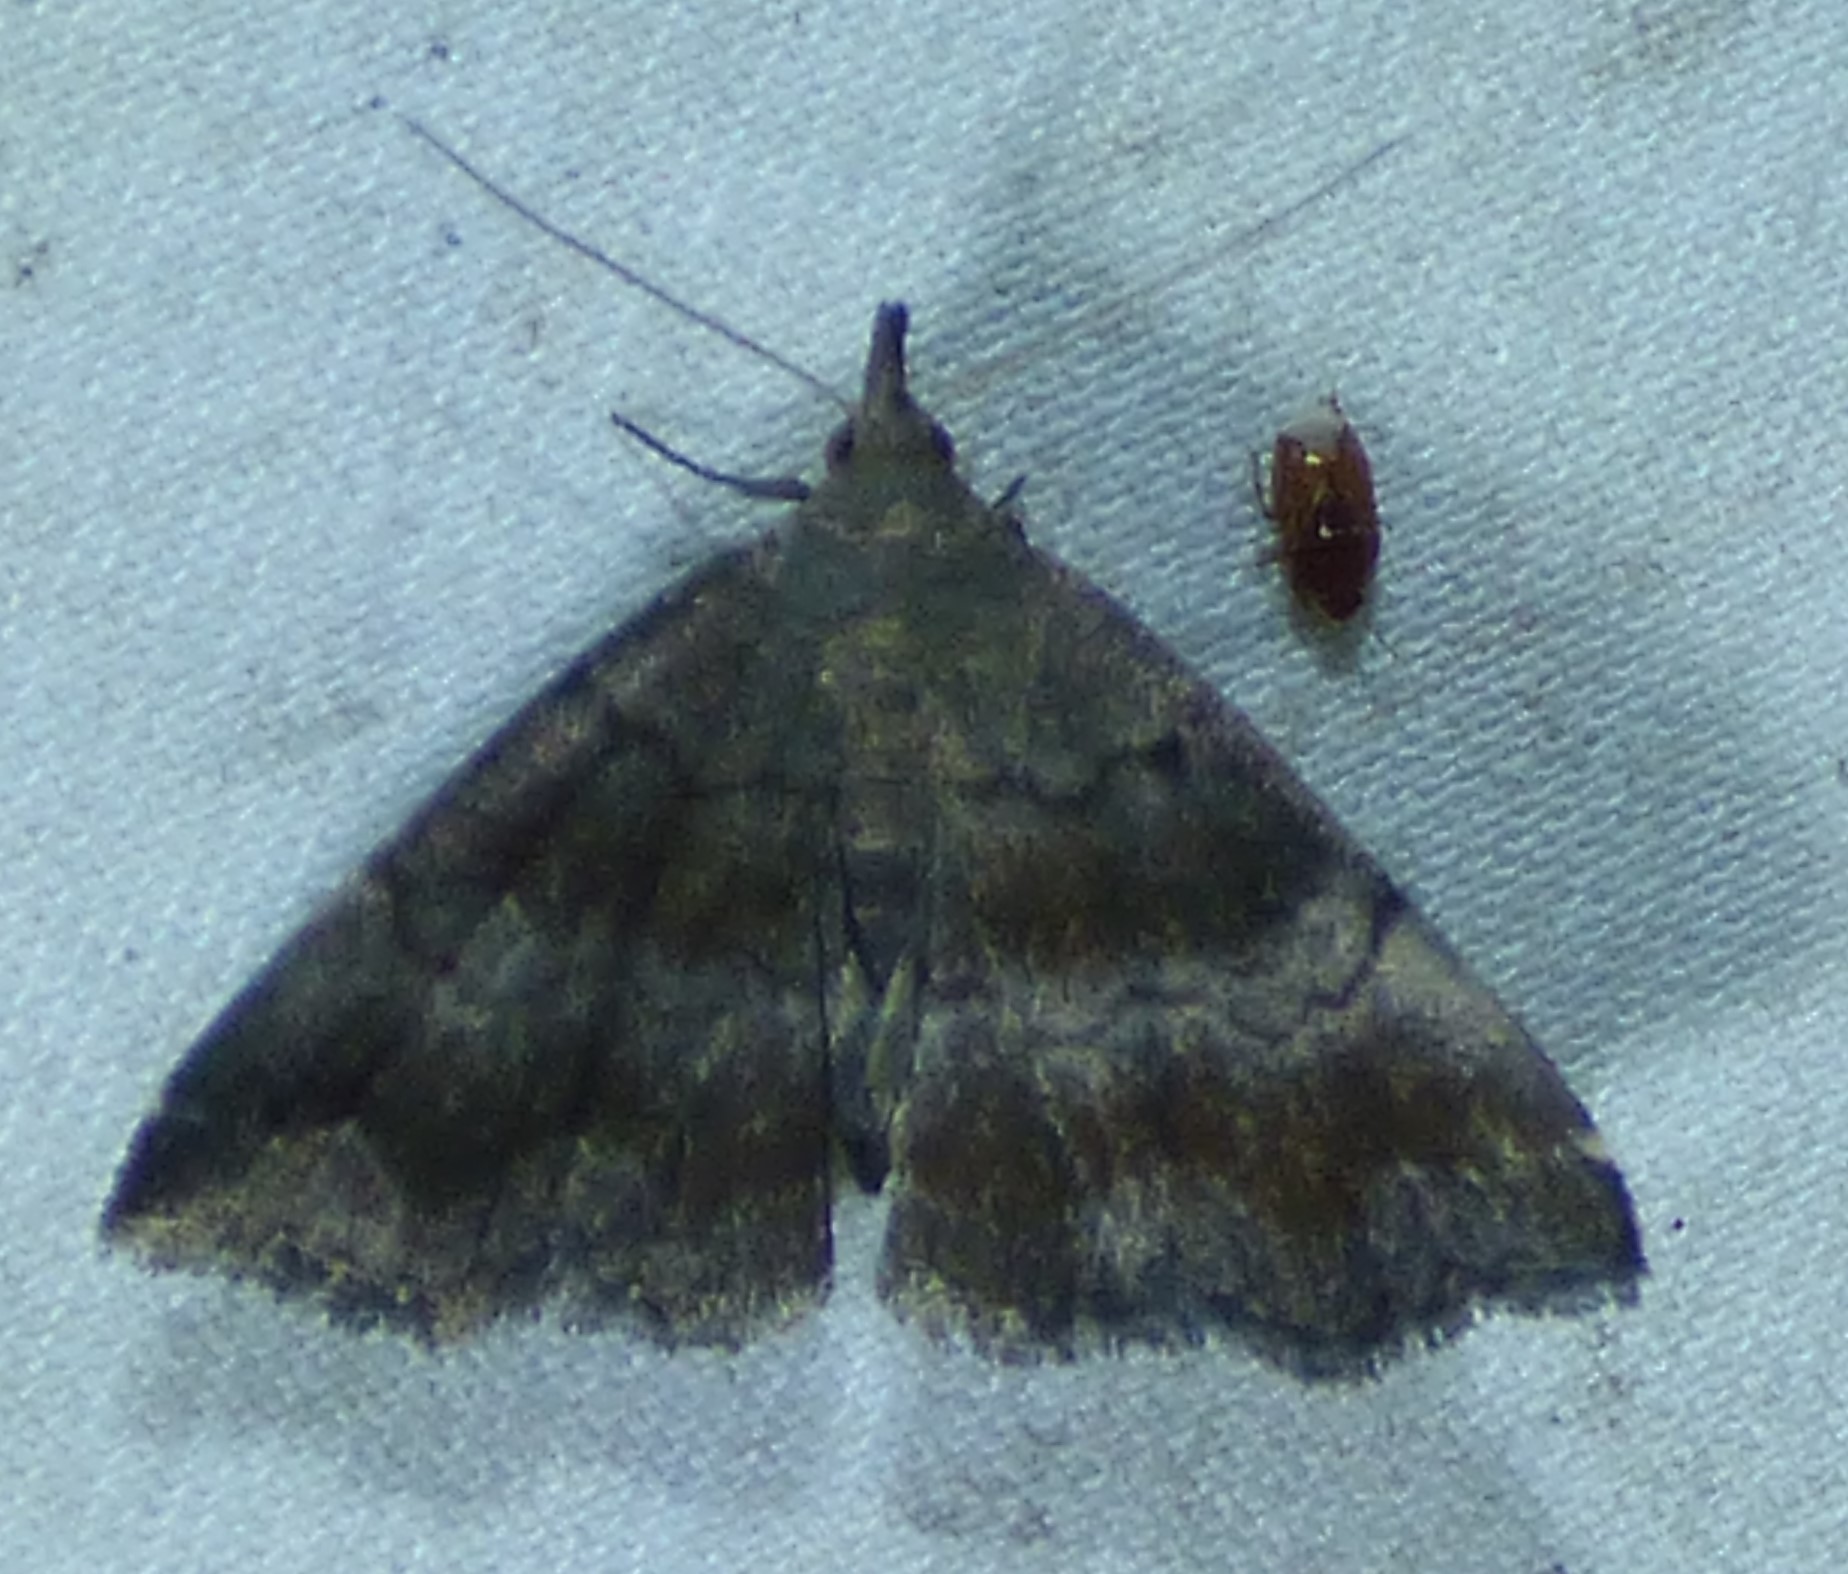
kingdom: Animalia
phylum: Arthropoda
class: Insecta
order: Lepidoptera
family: Erebidae
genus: Phalaenostola
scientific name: Phalaenostola larentioides
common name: Black-banded owlet
